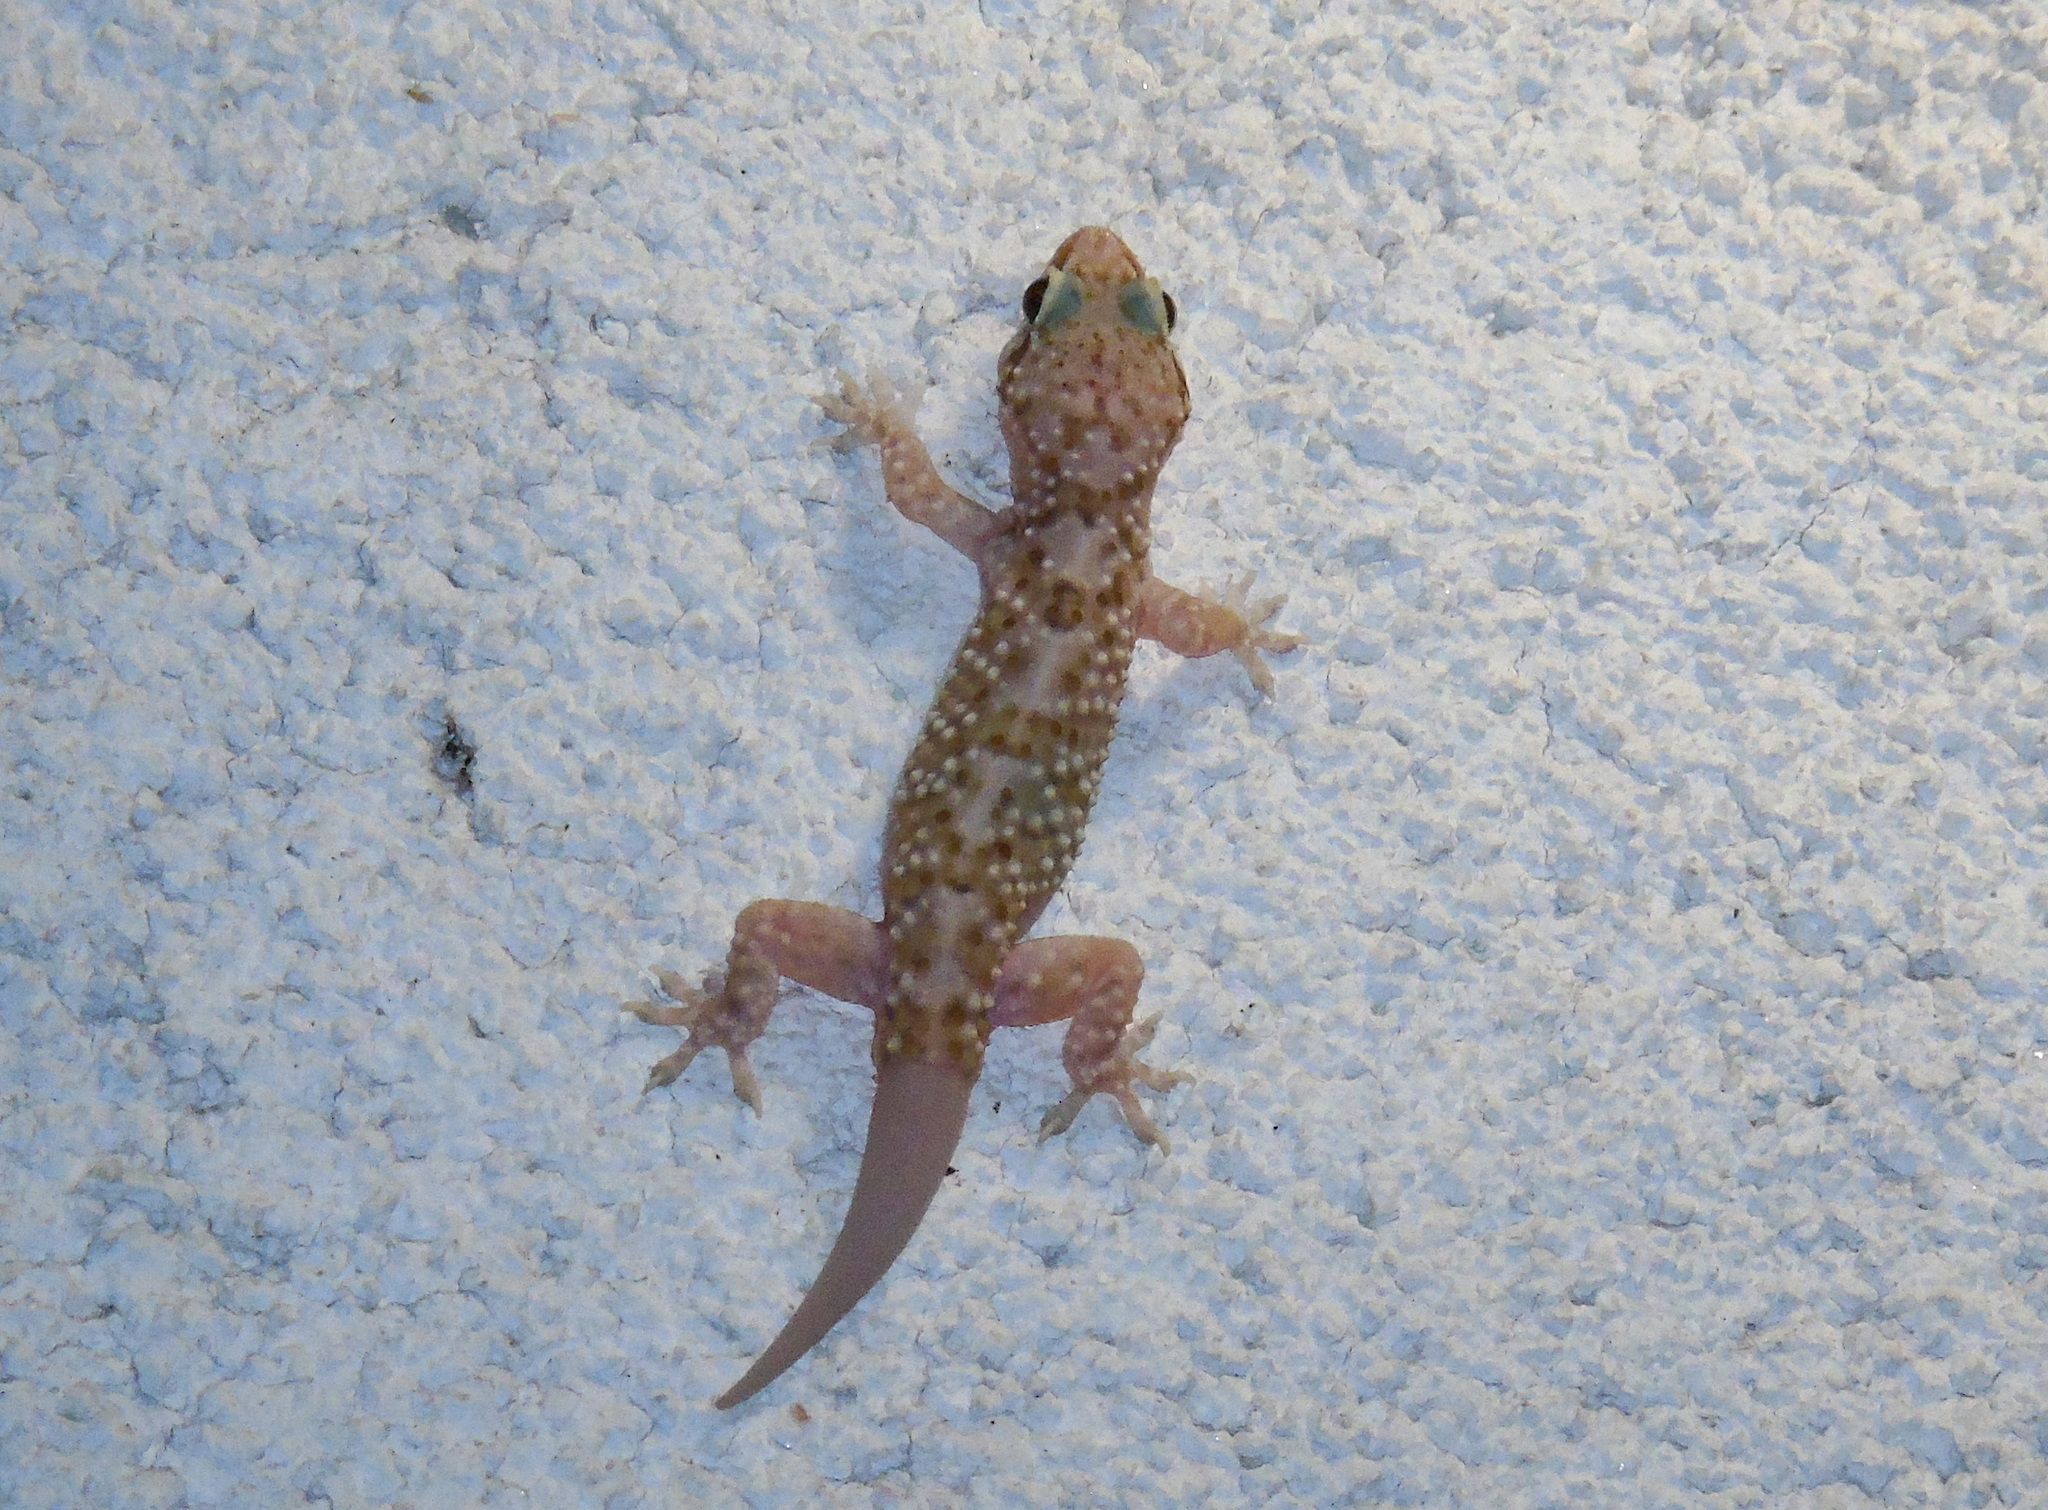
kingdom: Animalia
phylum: Chordata
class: Squamata
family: Gekkonidae
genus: Hemidactylus
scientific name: Hemidactylus turcicus
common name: Turkish gecko
